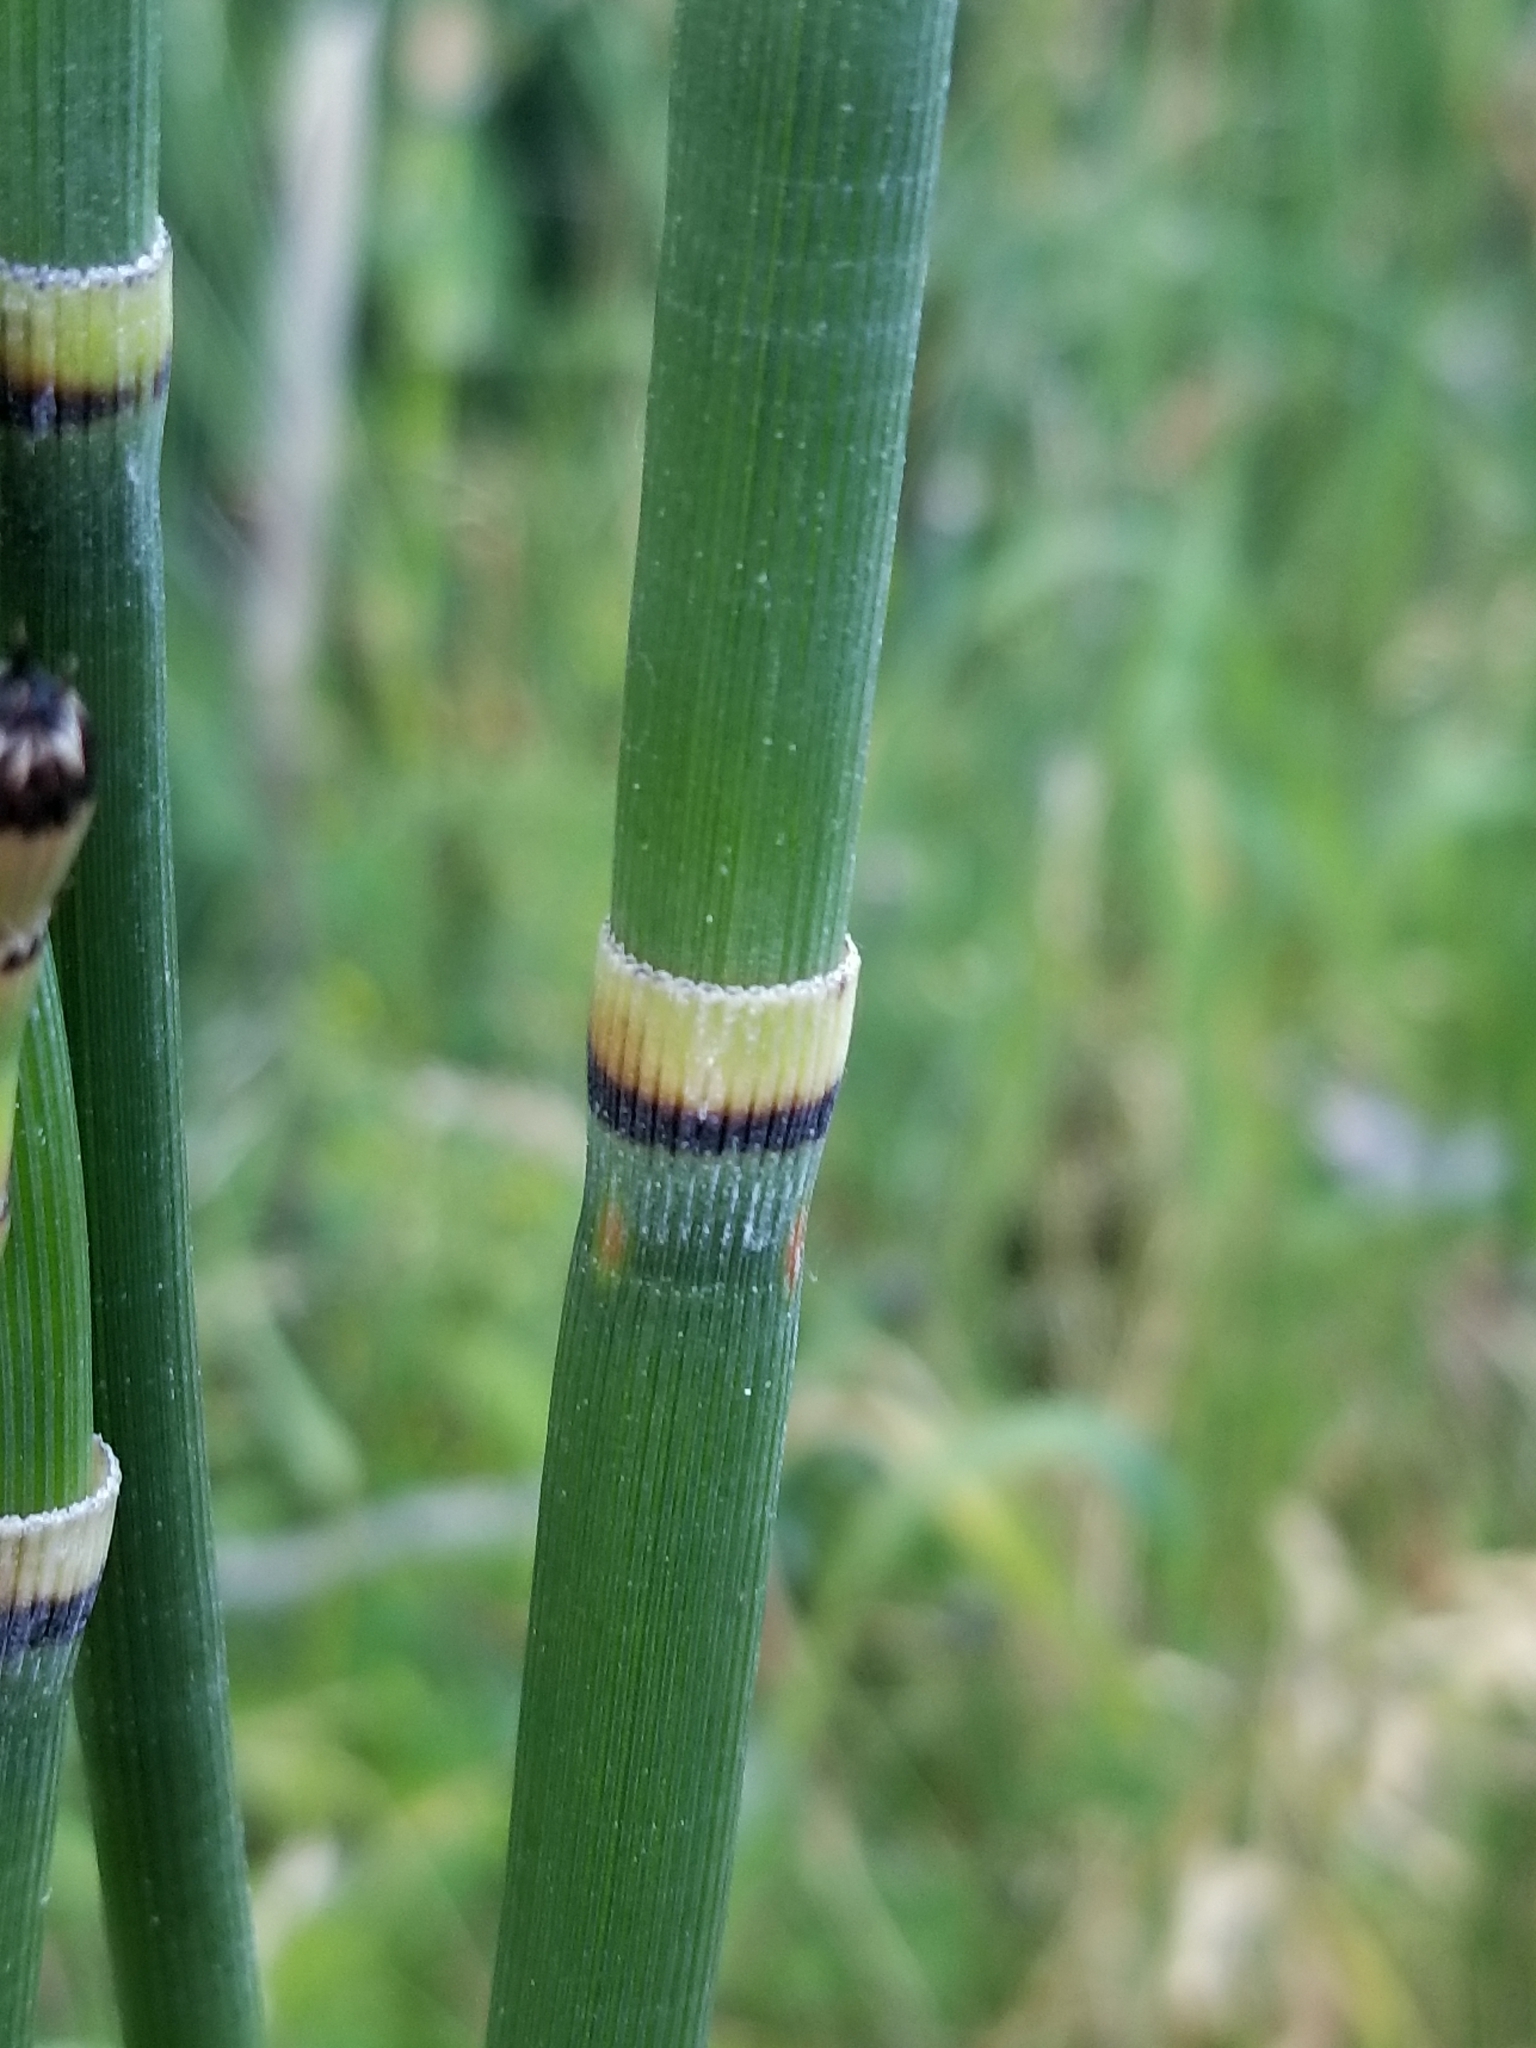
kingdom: Plantae
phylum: Tracheophyta
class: Polypodiopsida
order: Equisetales
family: Equisetaceae
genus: Equisetum
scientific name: Equisetum hyemale
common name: Rough horsetail
